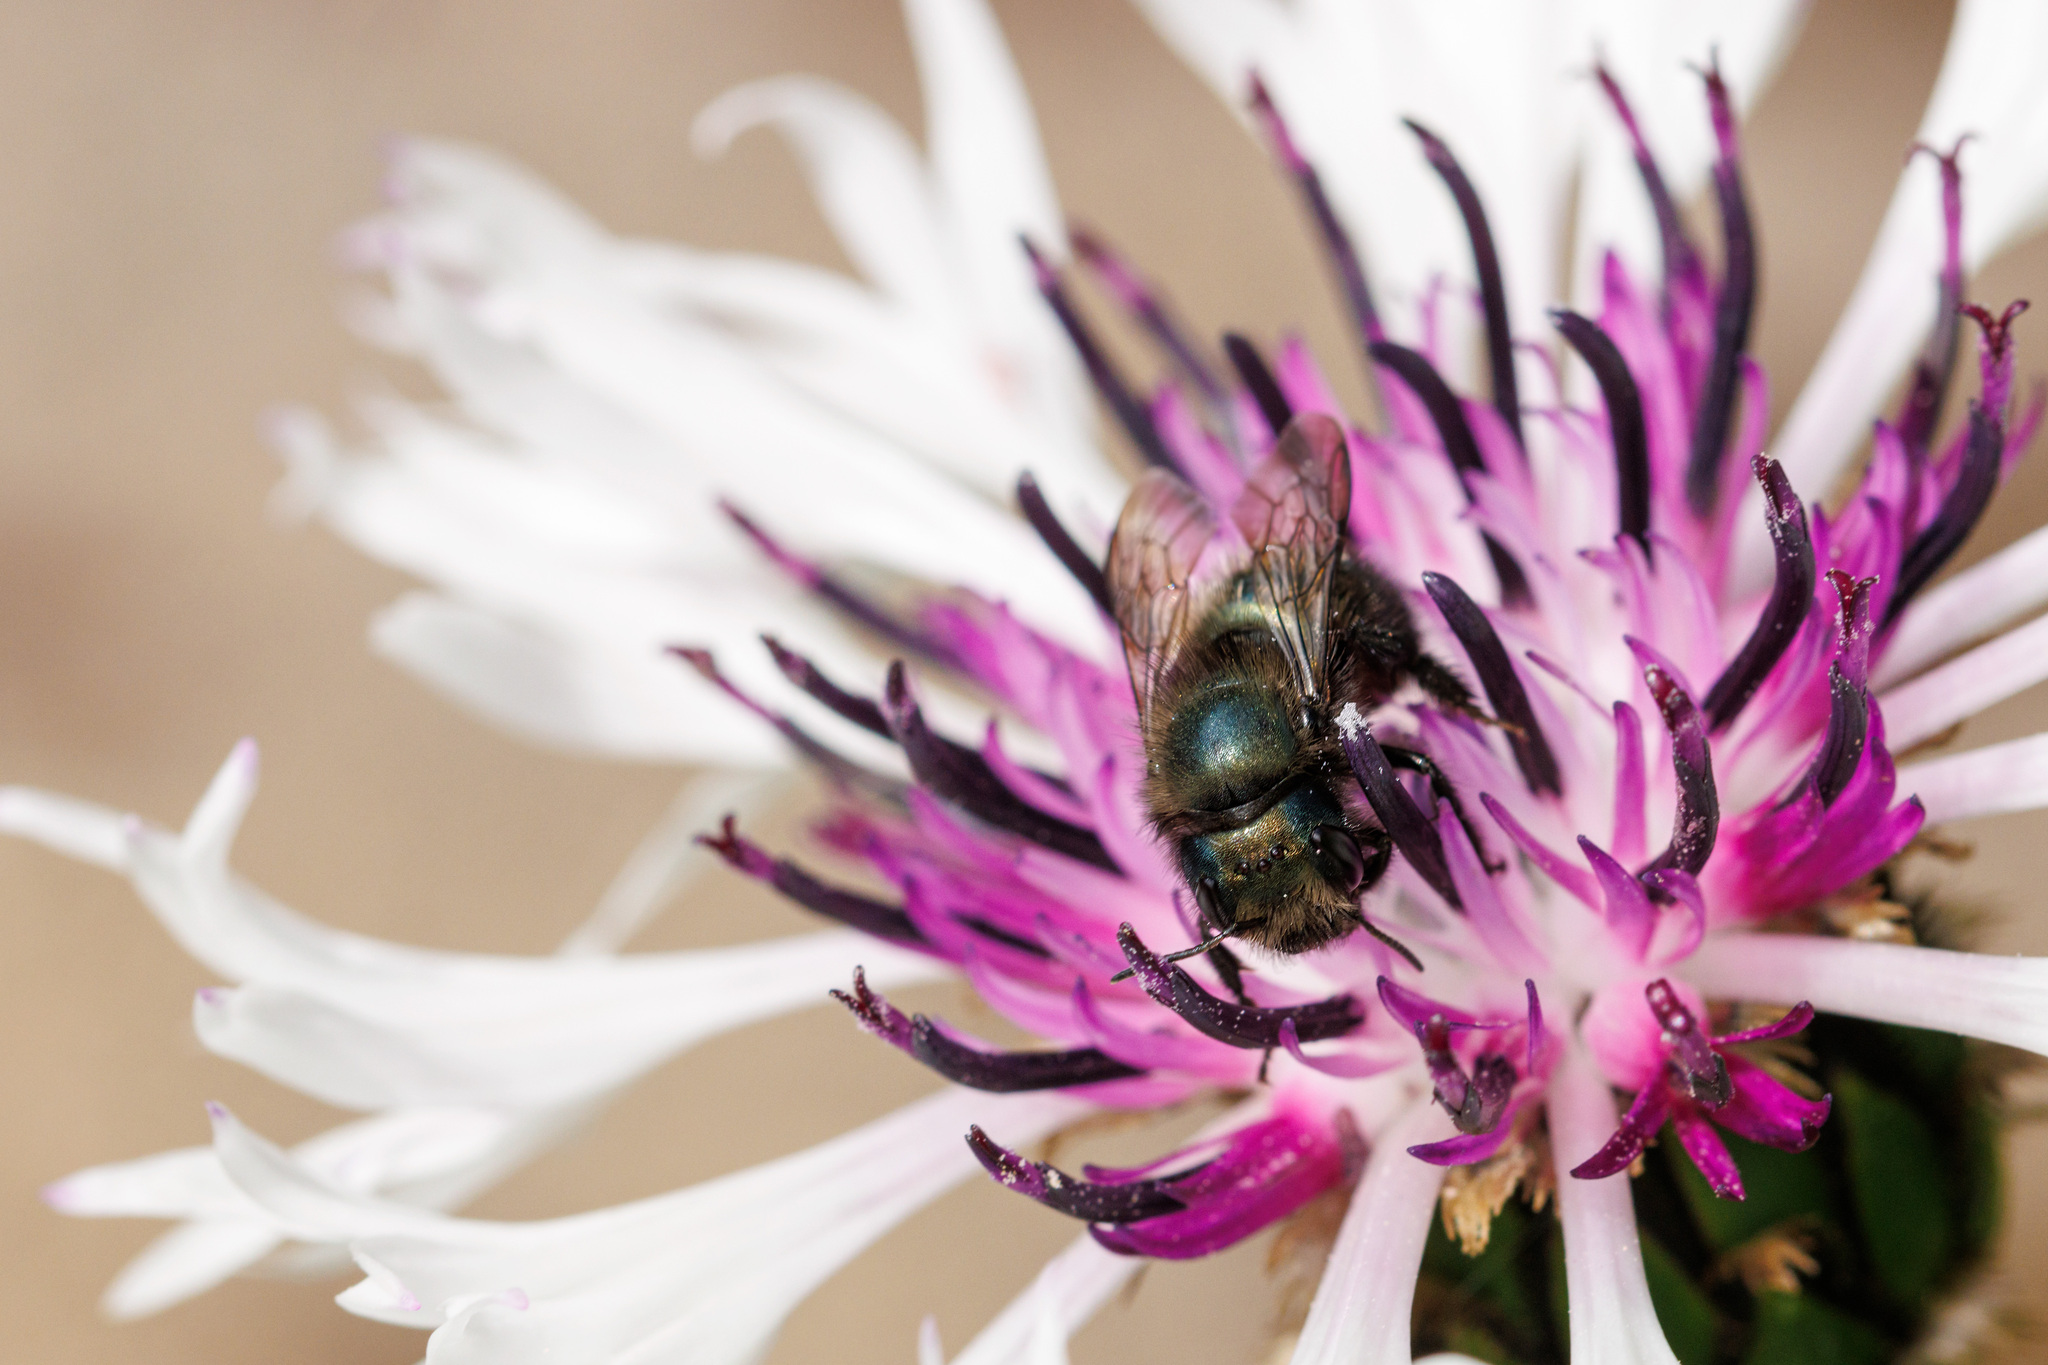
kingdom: Animalia
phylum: Arthropoda
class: Insecta
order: Hymenoptera
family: Megachilidae
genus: Osmia
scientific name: Osmia lignaria
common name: Blue orchard bee
